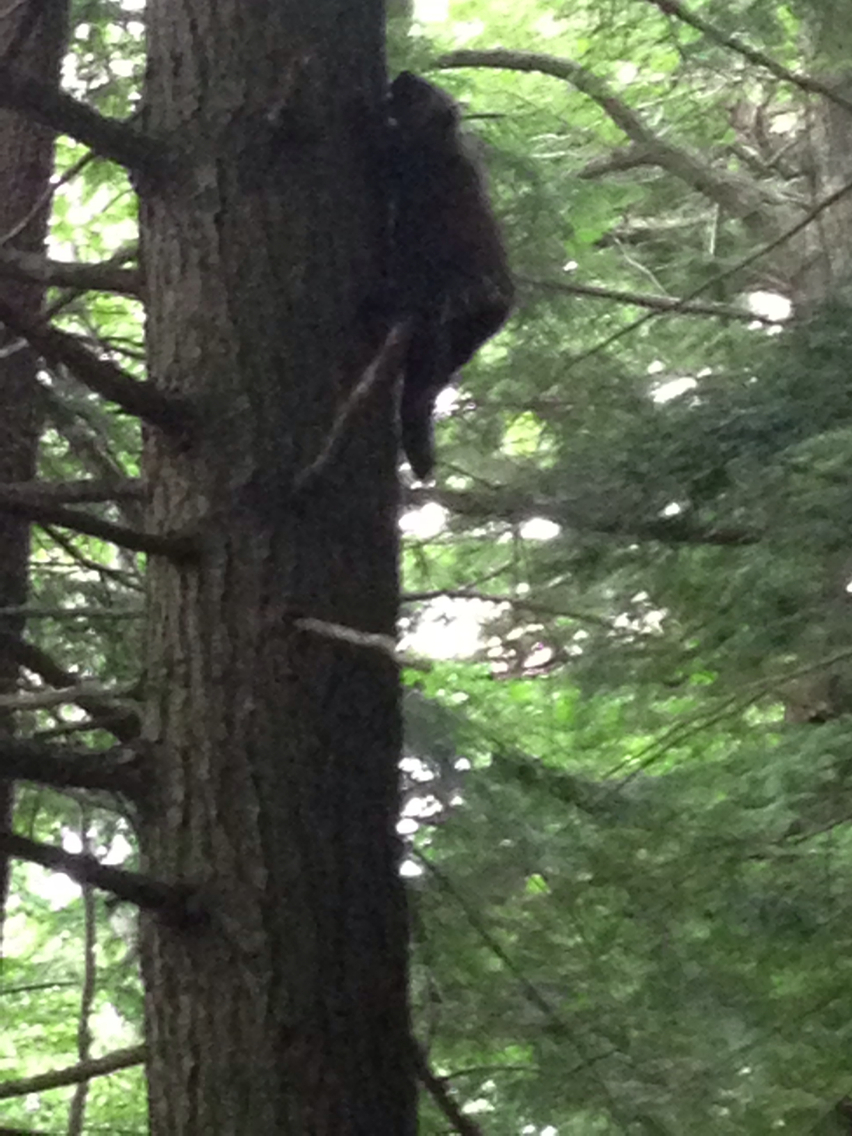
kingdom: Animalia
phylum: Chordata
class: Mammalia
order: Rodentia
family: Erethizontidae
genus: Erethizon
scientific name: Erethizon dorsatus
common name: North american porcupine
